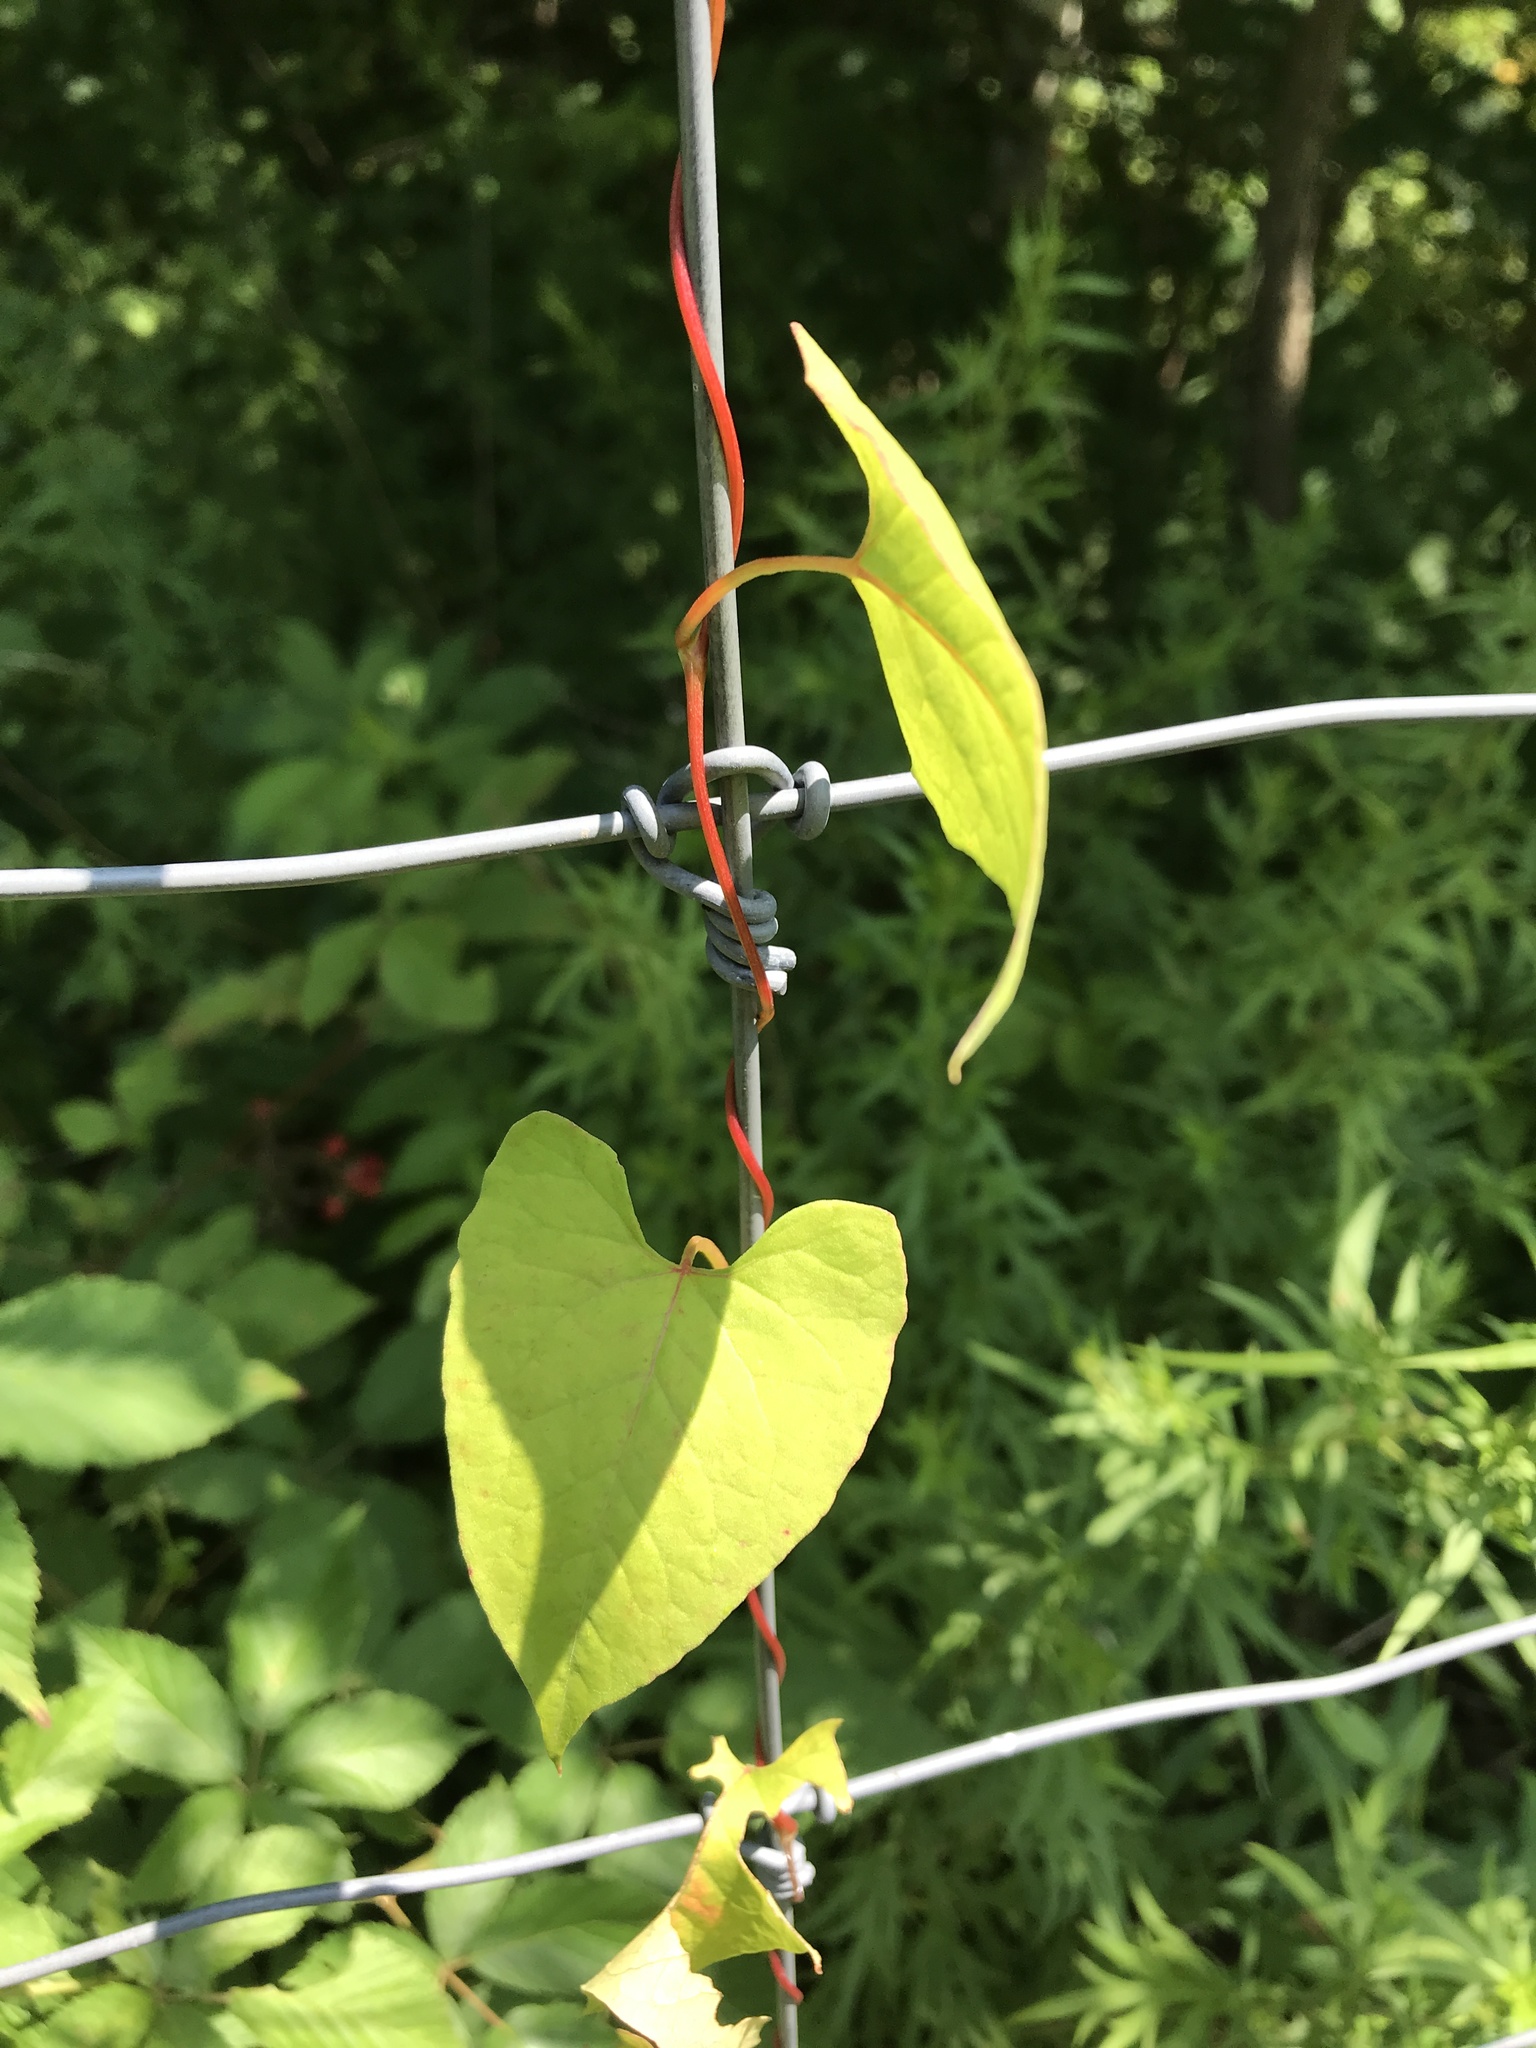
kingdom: Plantae
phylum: Tracheophyta
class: Magnoliopsida
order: Caryophyllales
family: Polygonaceae
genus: Fallopia
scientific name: Fallopia scandens
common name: Climbing false buckwheat
